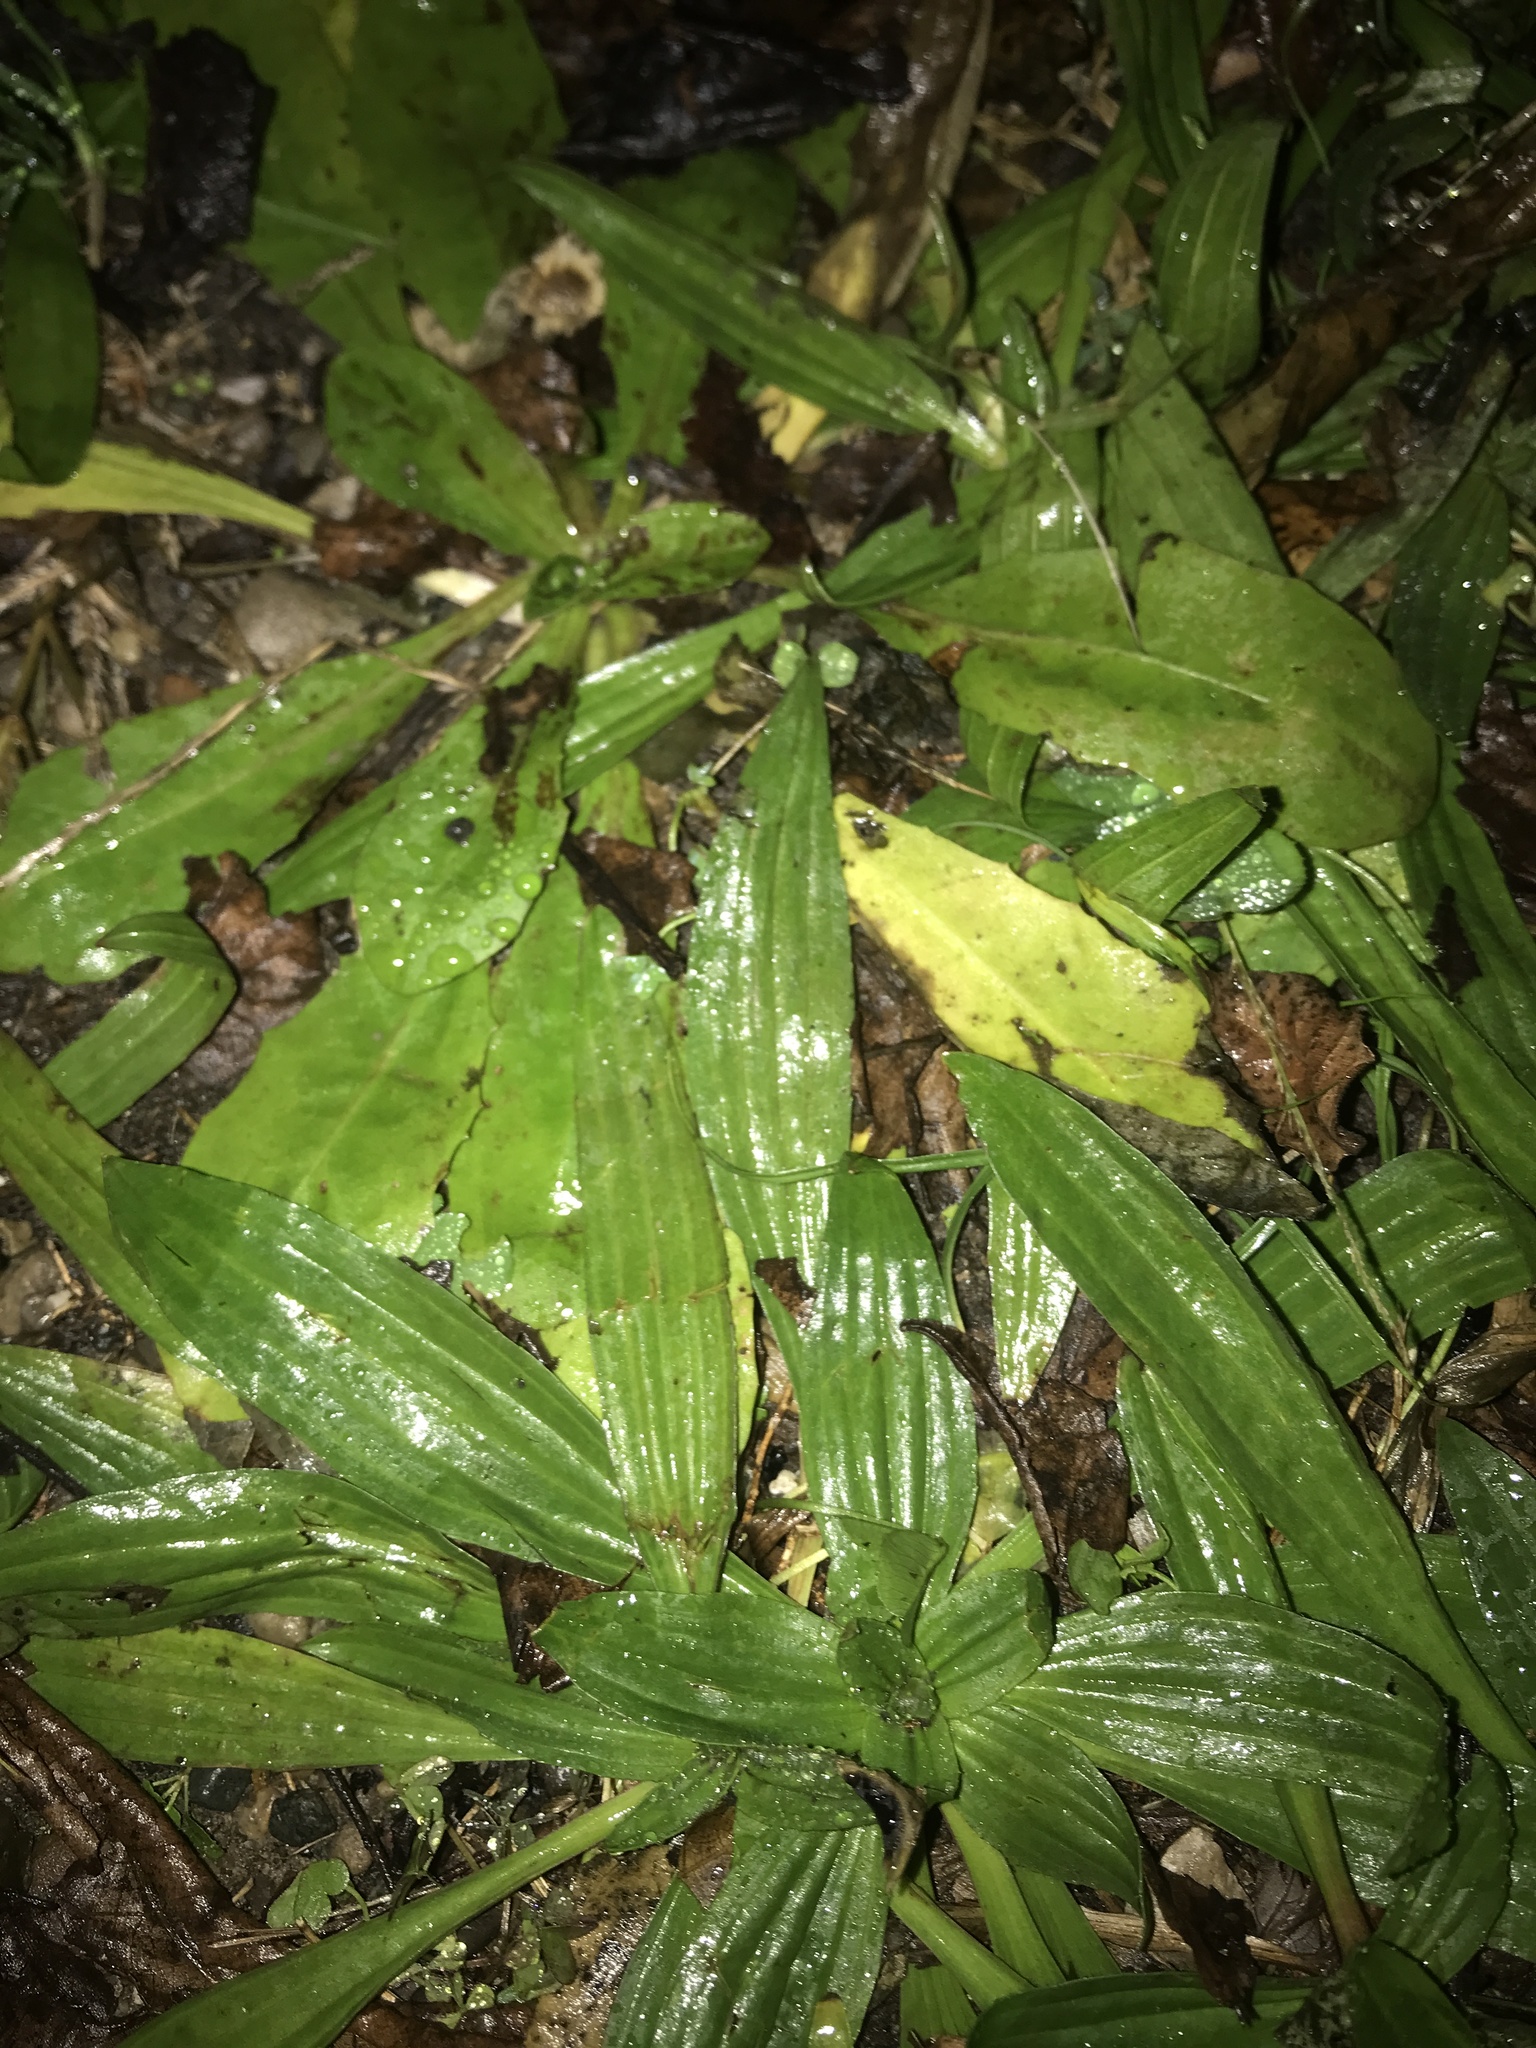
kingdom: Plantae
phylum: Tracheophyta
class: Magnoliopsida
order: Lamiales
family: Plantaginaceae
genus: Plantago
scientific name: Plantago lanceolata
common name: Ribwort plantain
